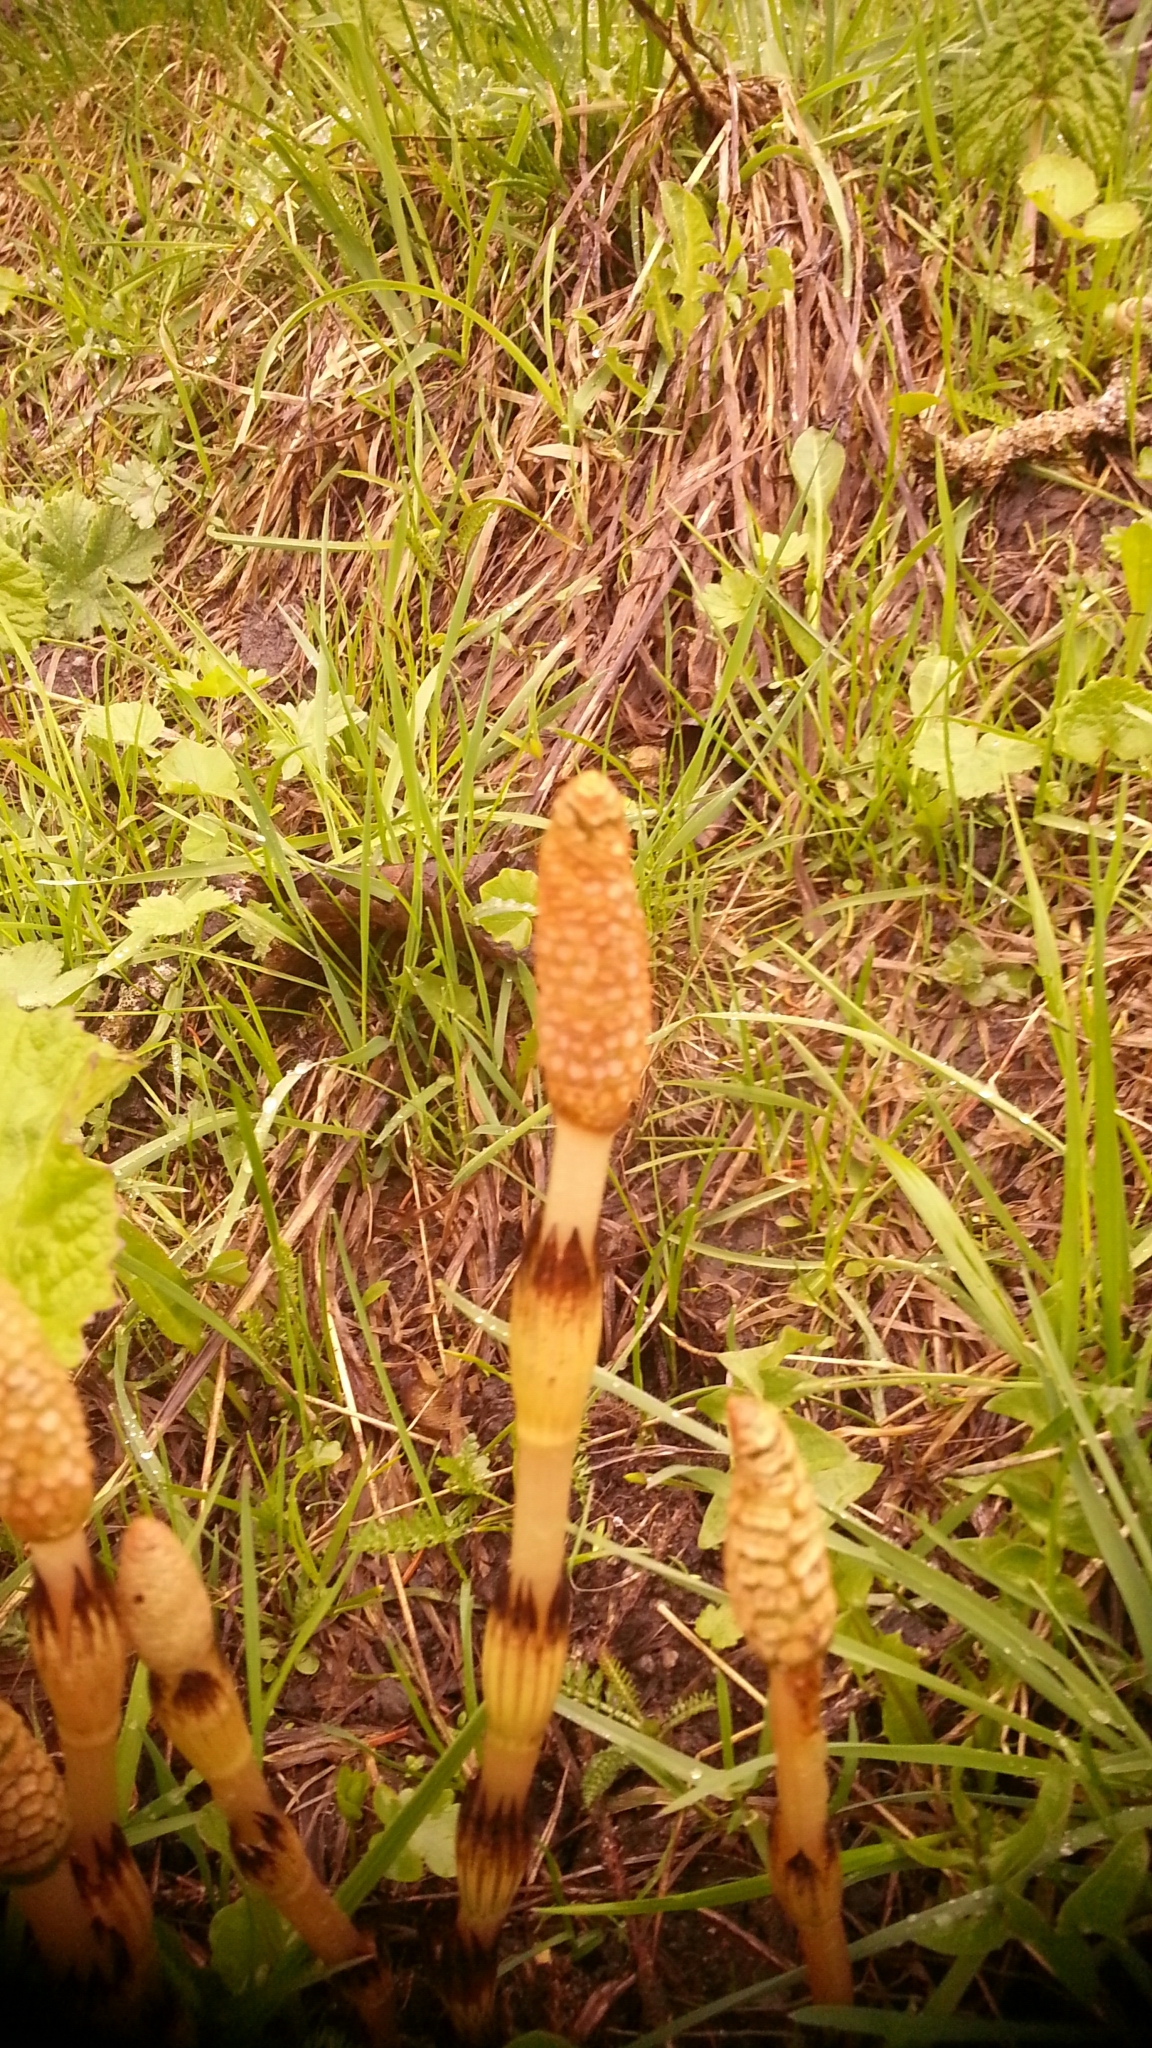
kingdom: Plantae
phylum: Tracheophyta
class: Polypodiopsida
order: Equisetales
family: Equisetaceae
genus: Equisetum
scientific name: Equisetum arvense
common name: Field horsetail
